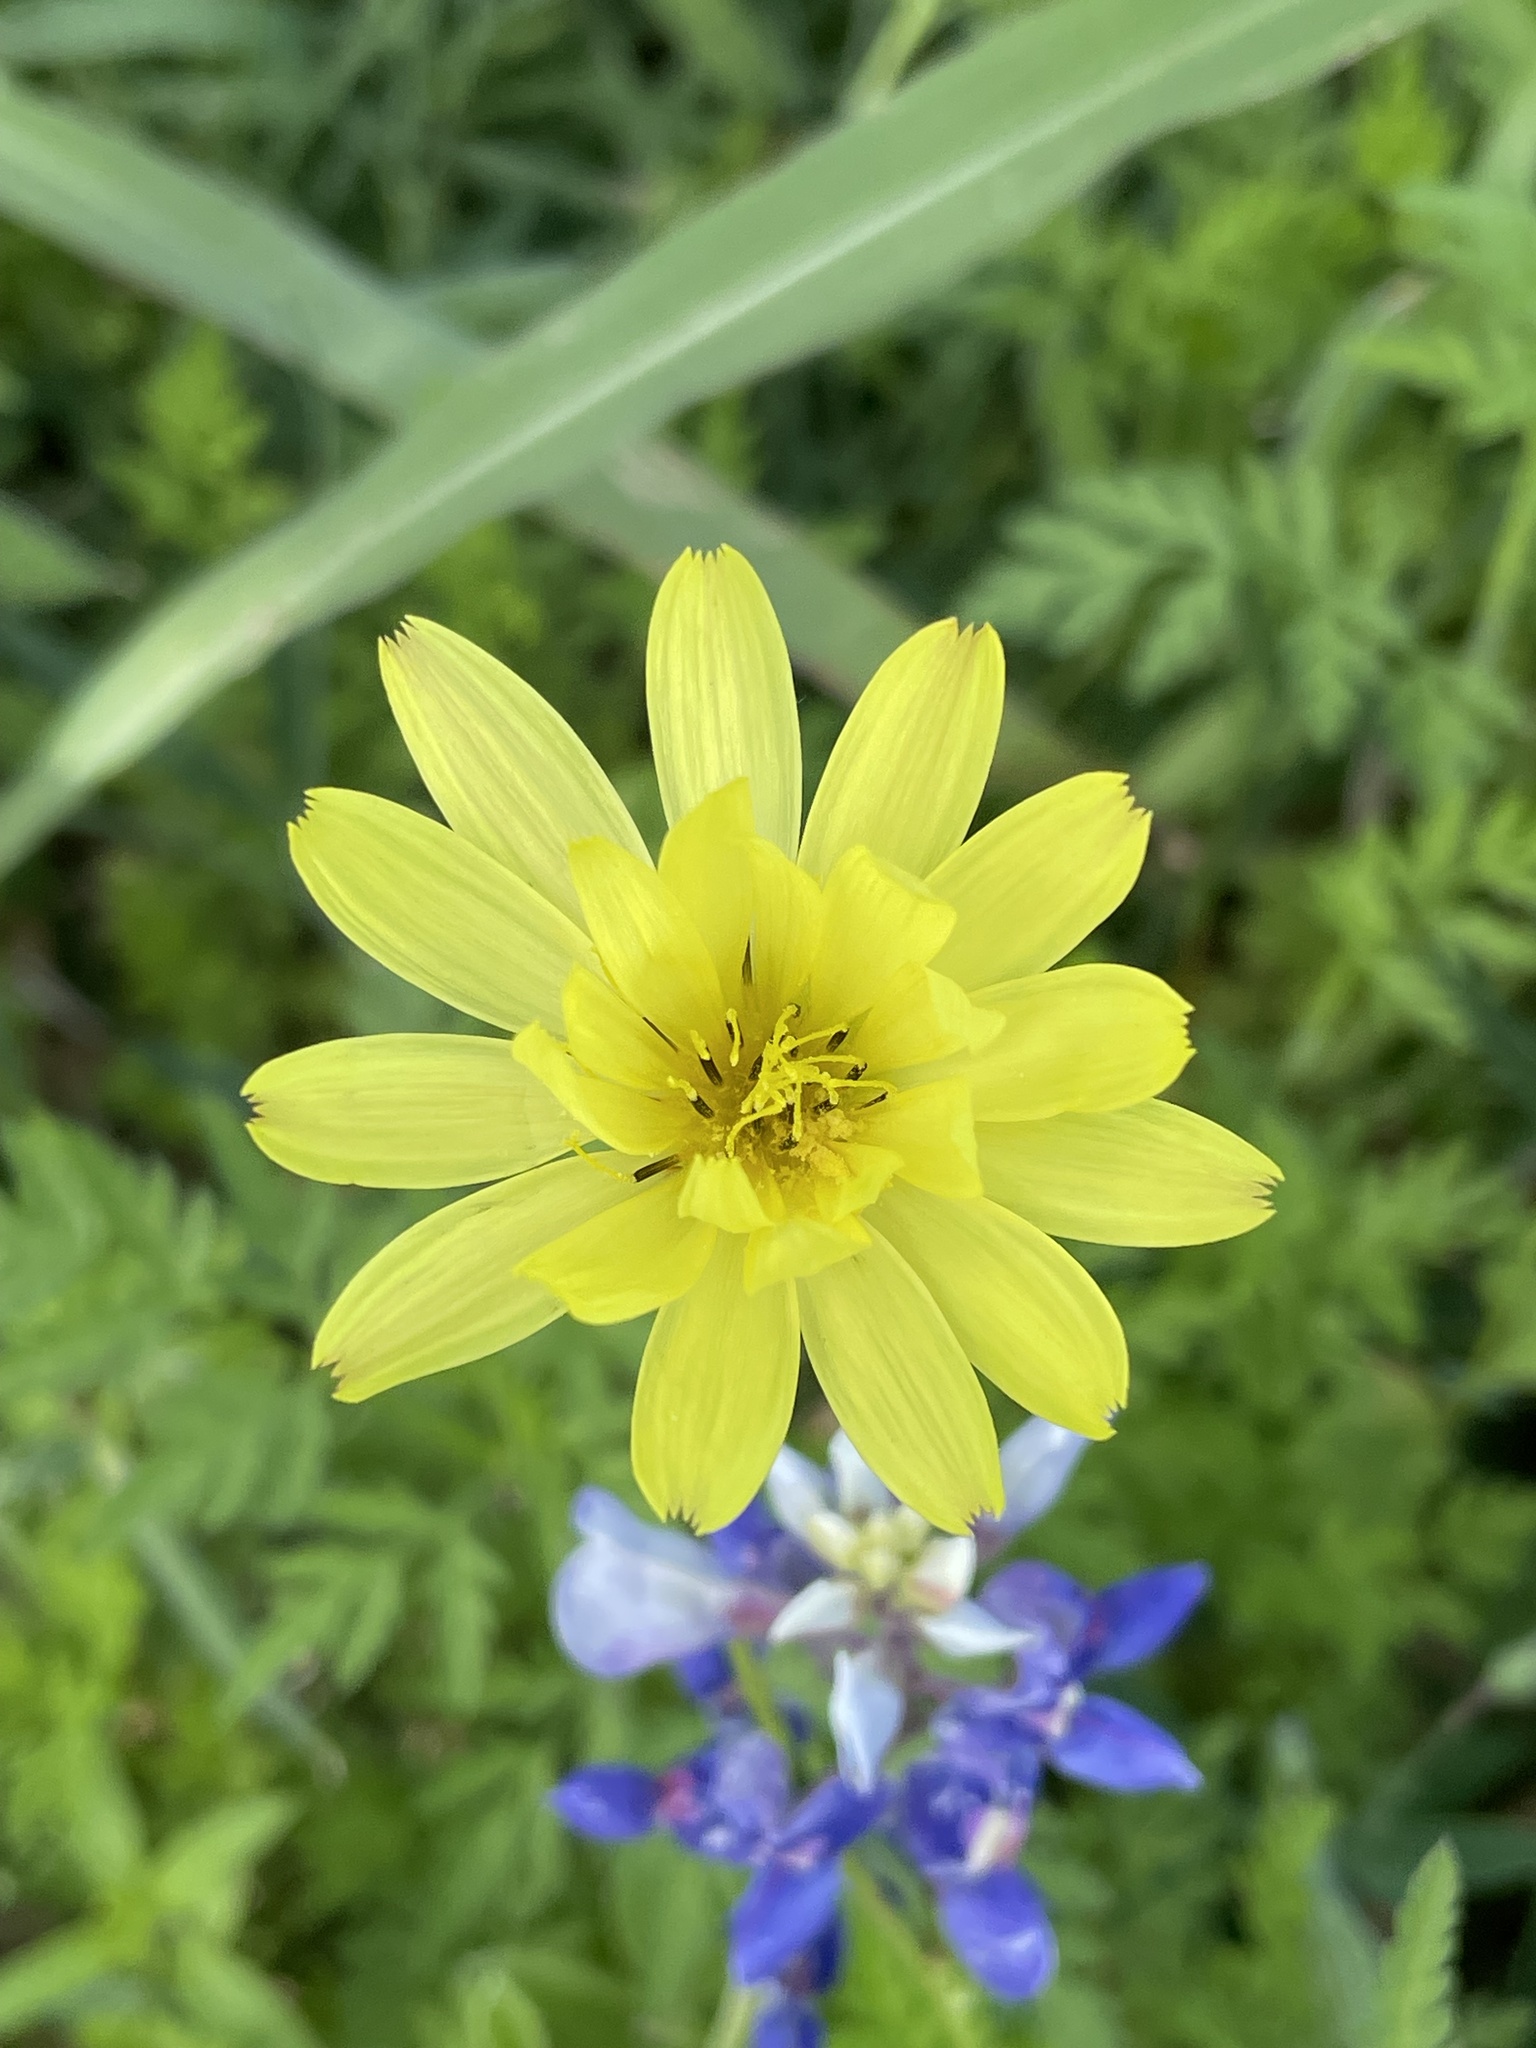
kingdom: Plantae
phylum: Tracheophyta
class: Magnoliopsida
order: Asterales
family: Asteraceae
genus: Pyrrhopappus
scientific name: Pyrrhopappus pauciflorus
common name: Texas false dandelion
